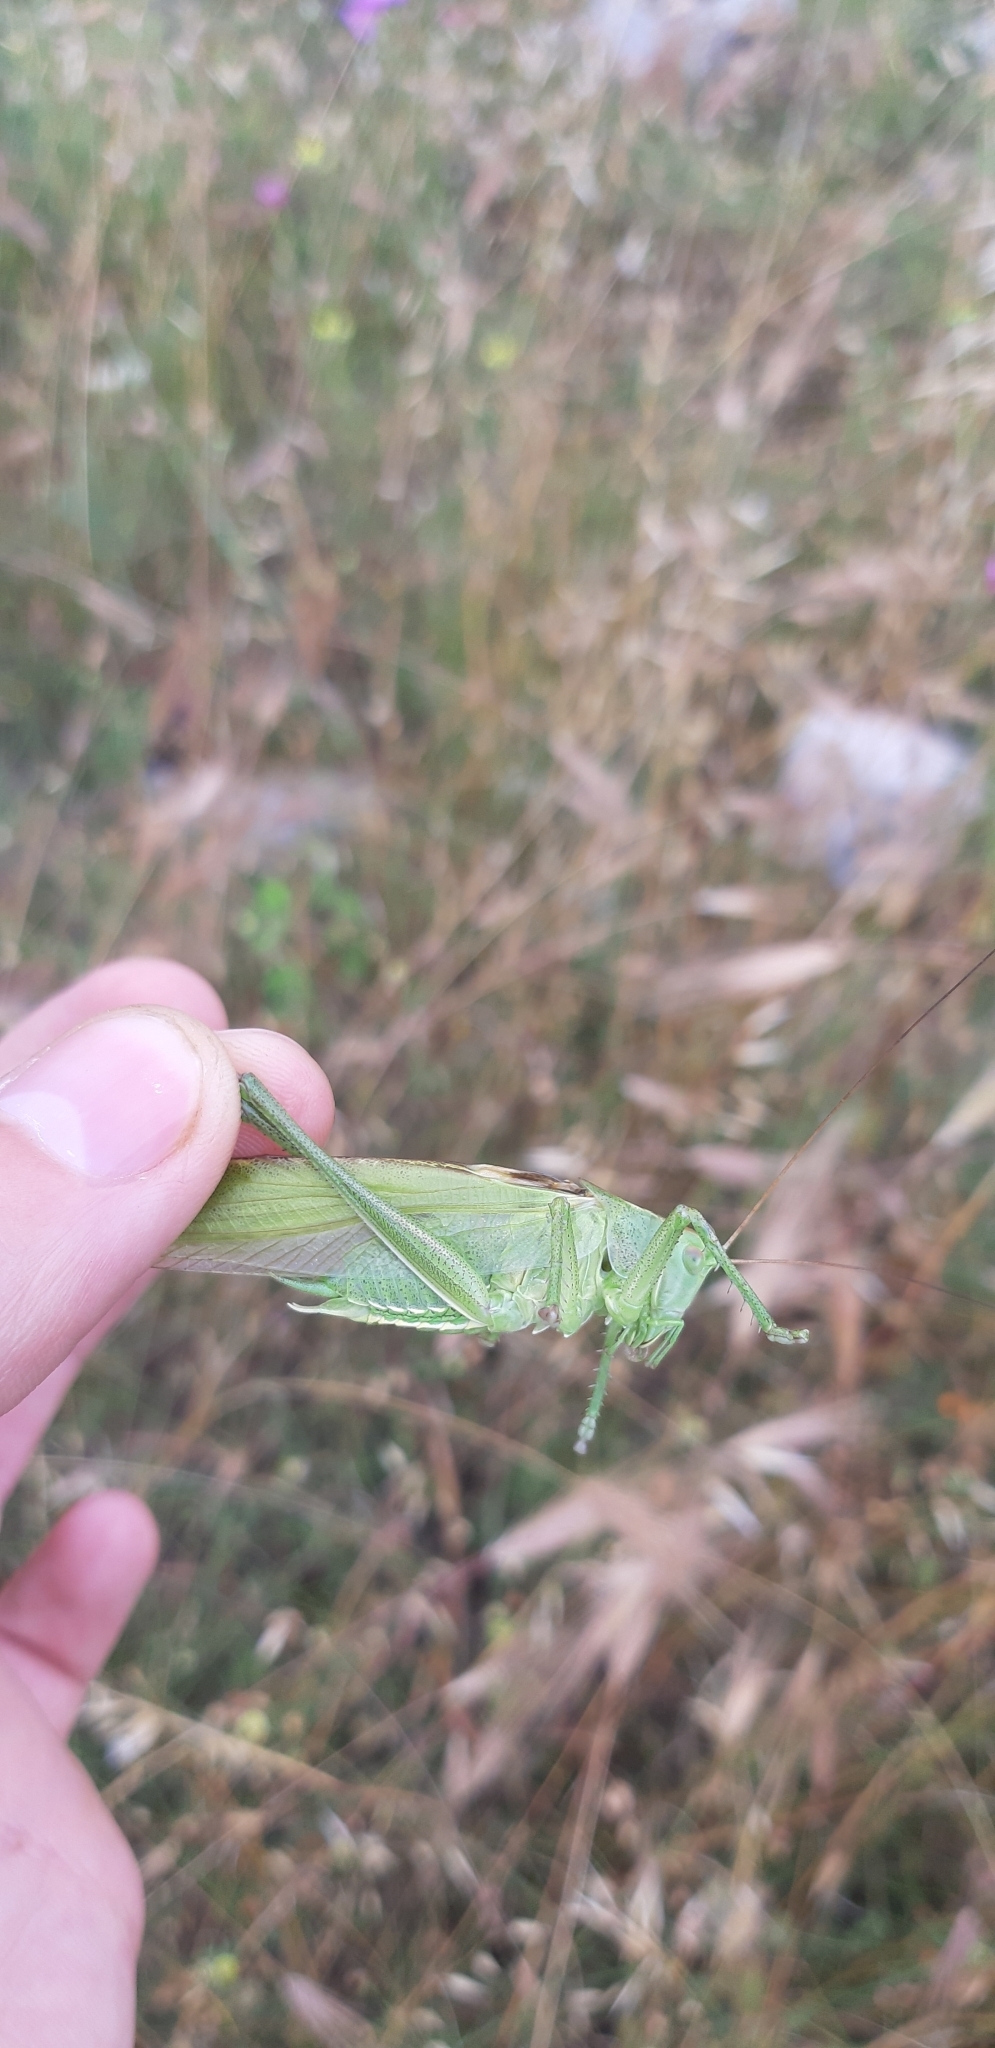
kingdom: Animalia
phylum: Arthropoda
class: Insecta
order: Orthoptera
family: Tettigoniidae
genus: Tettigonia
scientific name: Tettigonia viridissima
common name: Great green bush-cricket
